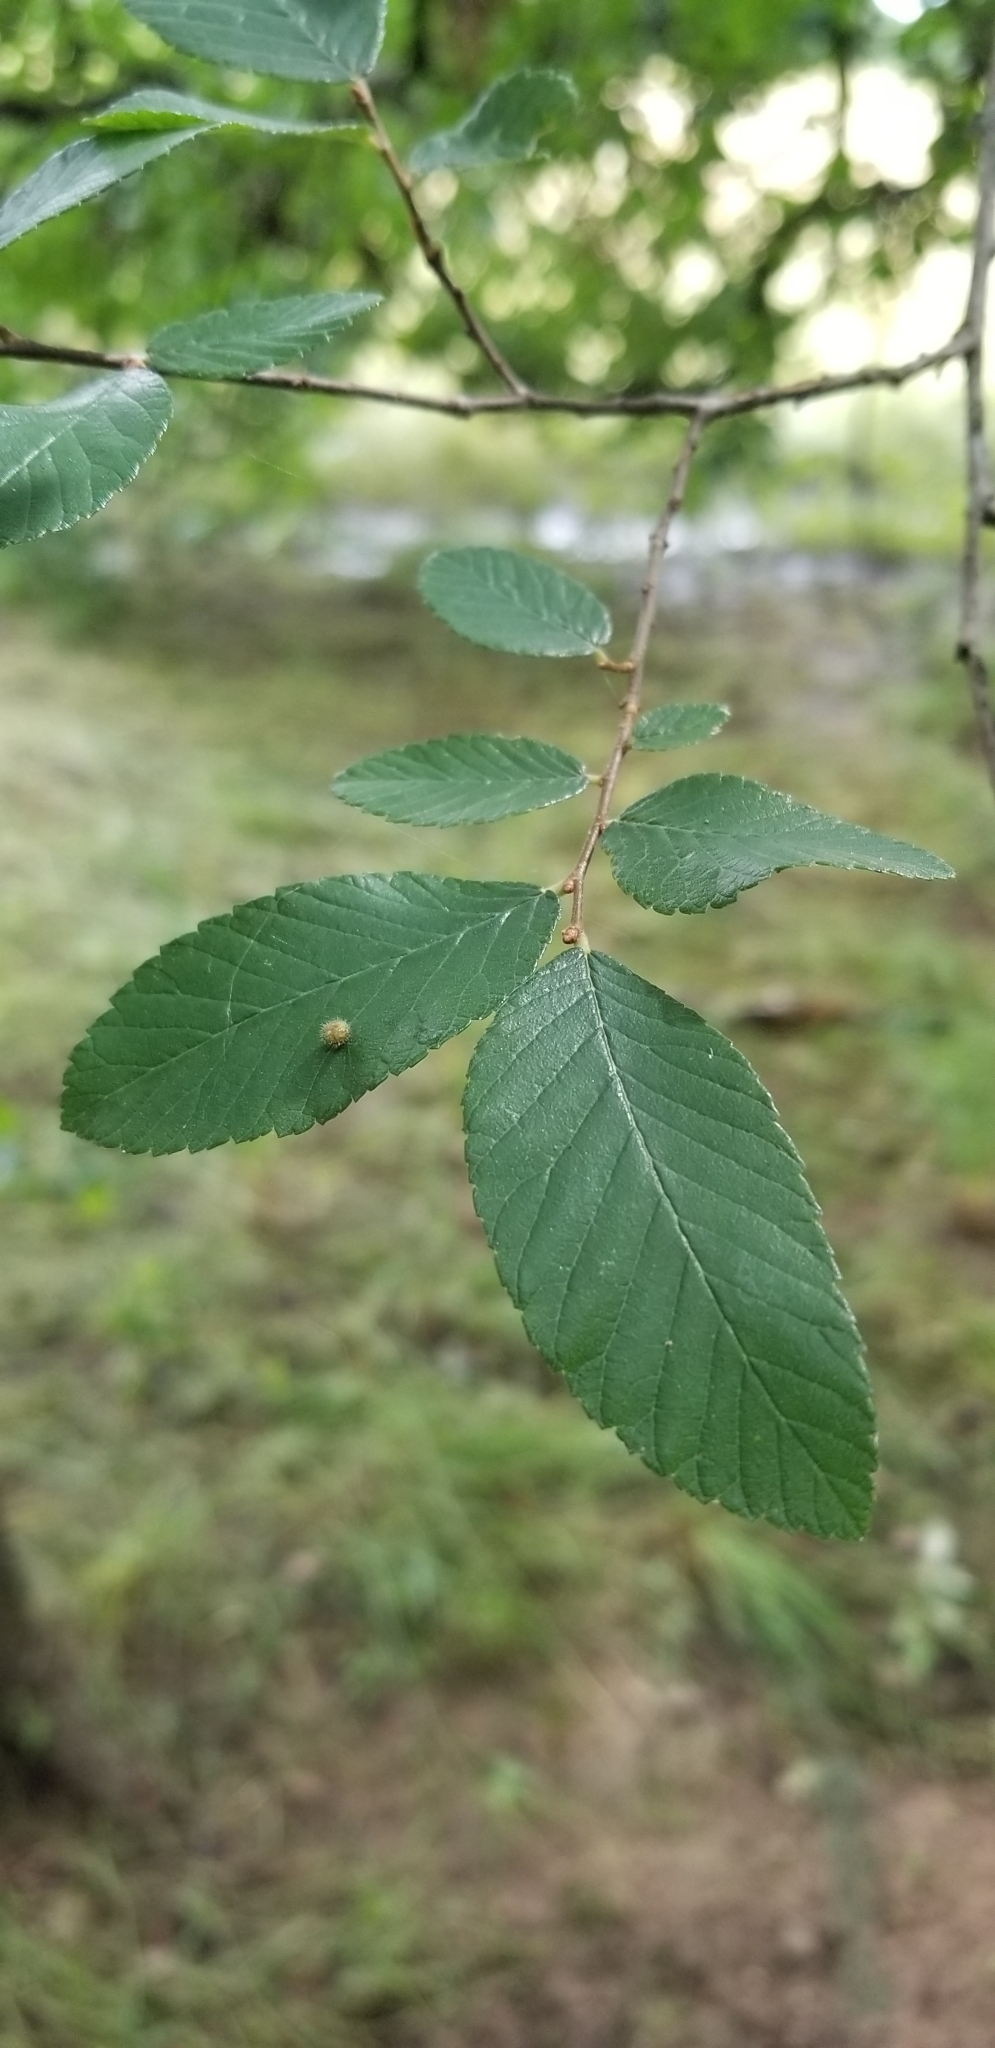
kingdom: Plantae
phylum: Tracheophyta
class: Magnoliopsida
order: Rosales
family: Ulmaceae
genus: Ulmus
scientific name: Ulmus crassifolia
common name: Basket elm
